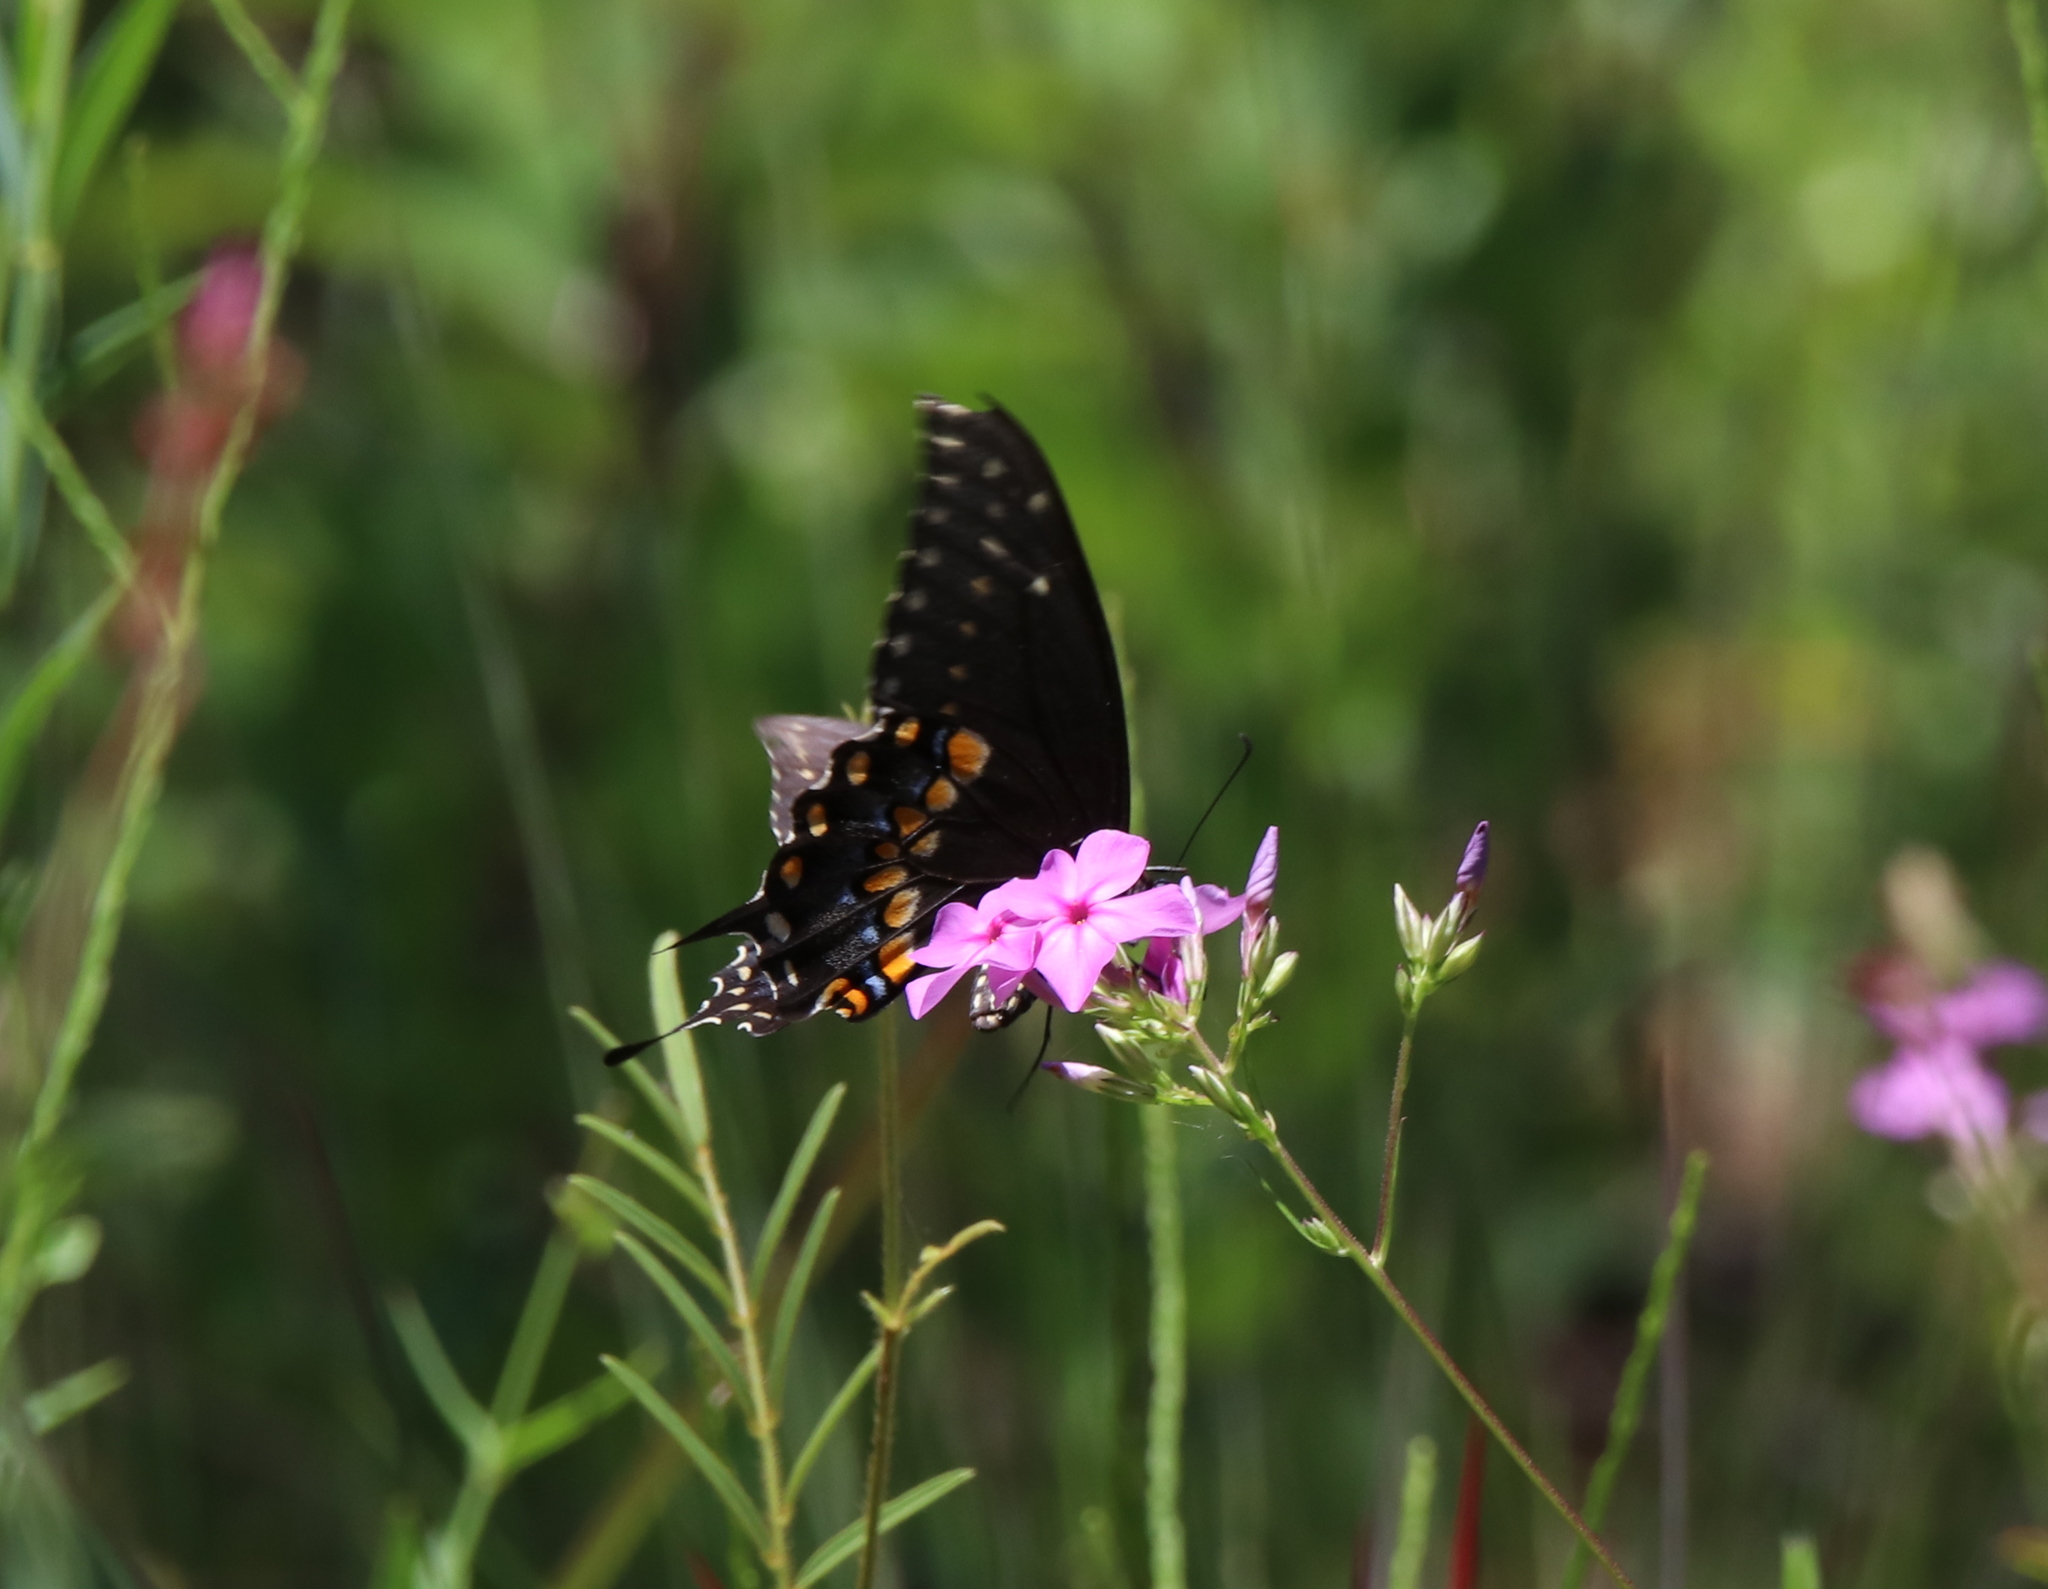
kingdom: Animalia
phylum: Arthropoda
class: Insecta
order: Lepidoptera
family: Papilionidae
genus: Papilio
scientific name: Papilio polyxenes
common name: Black swallowtail
